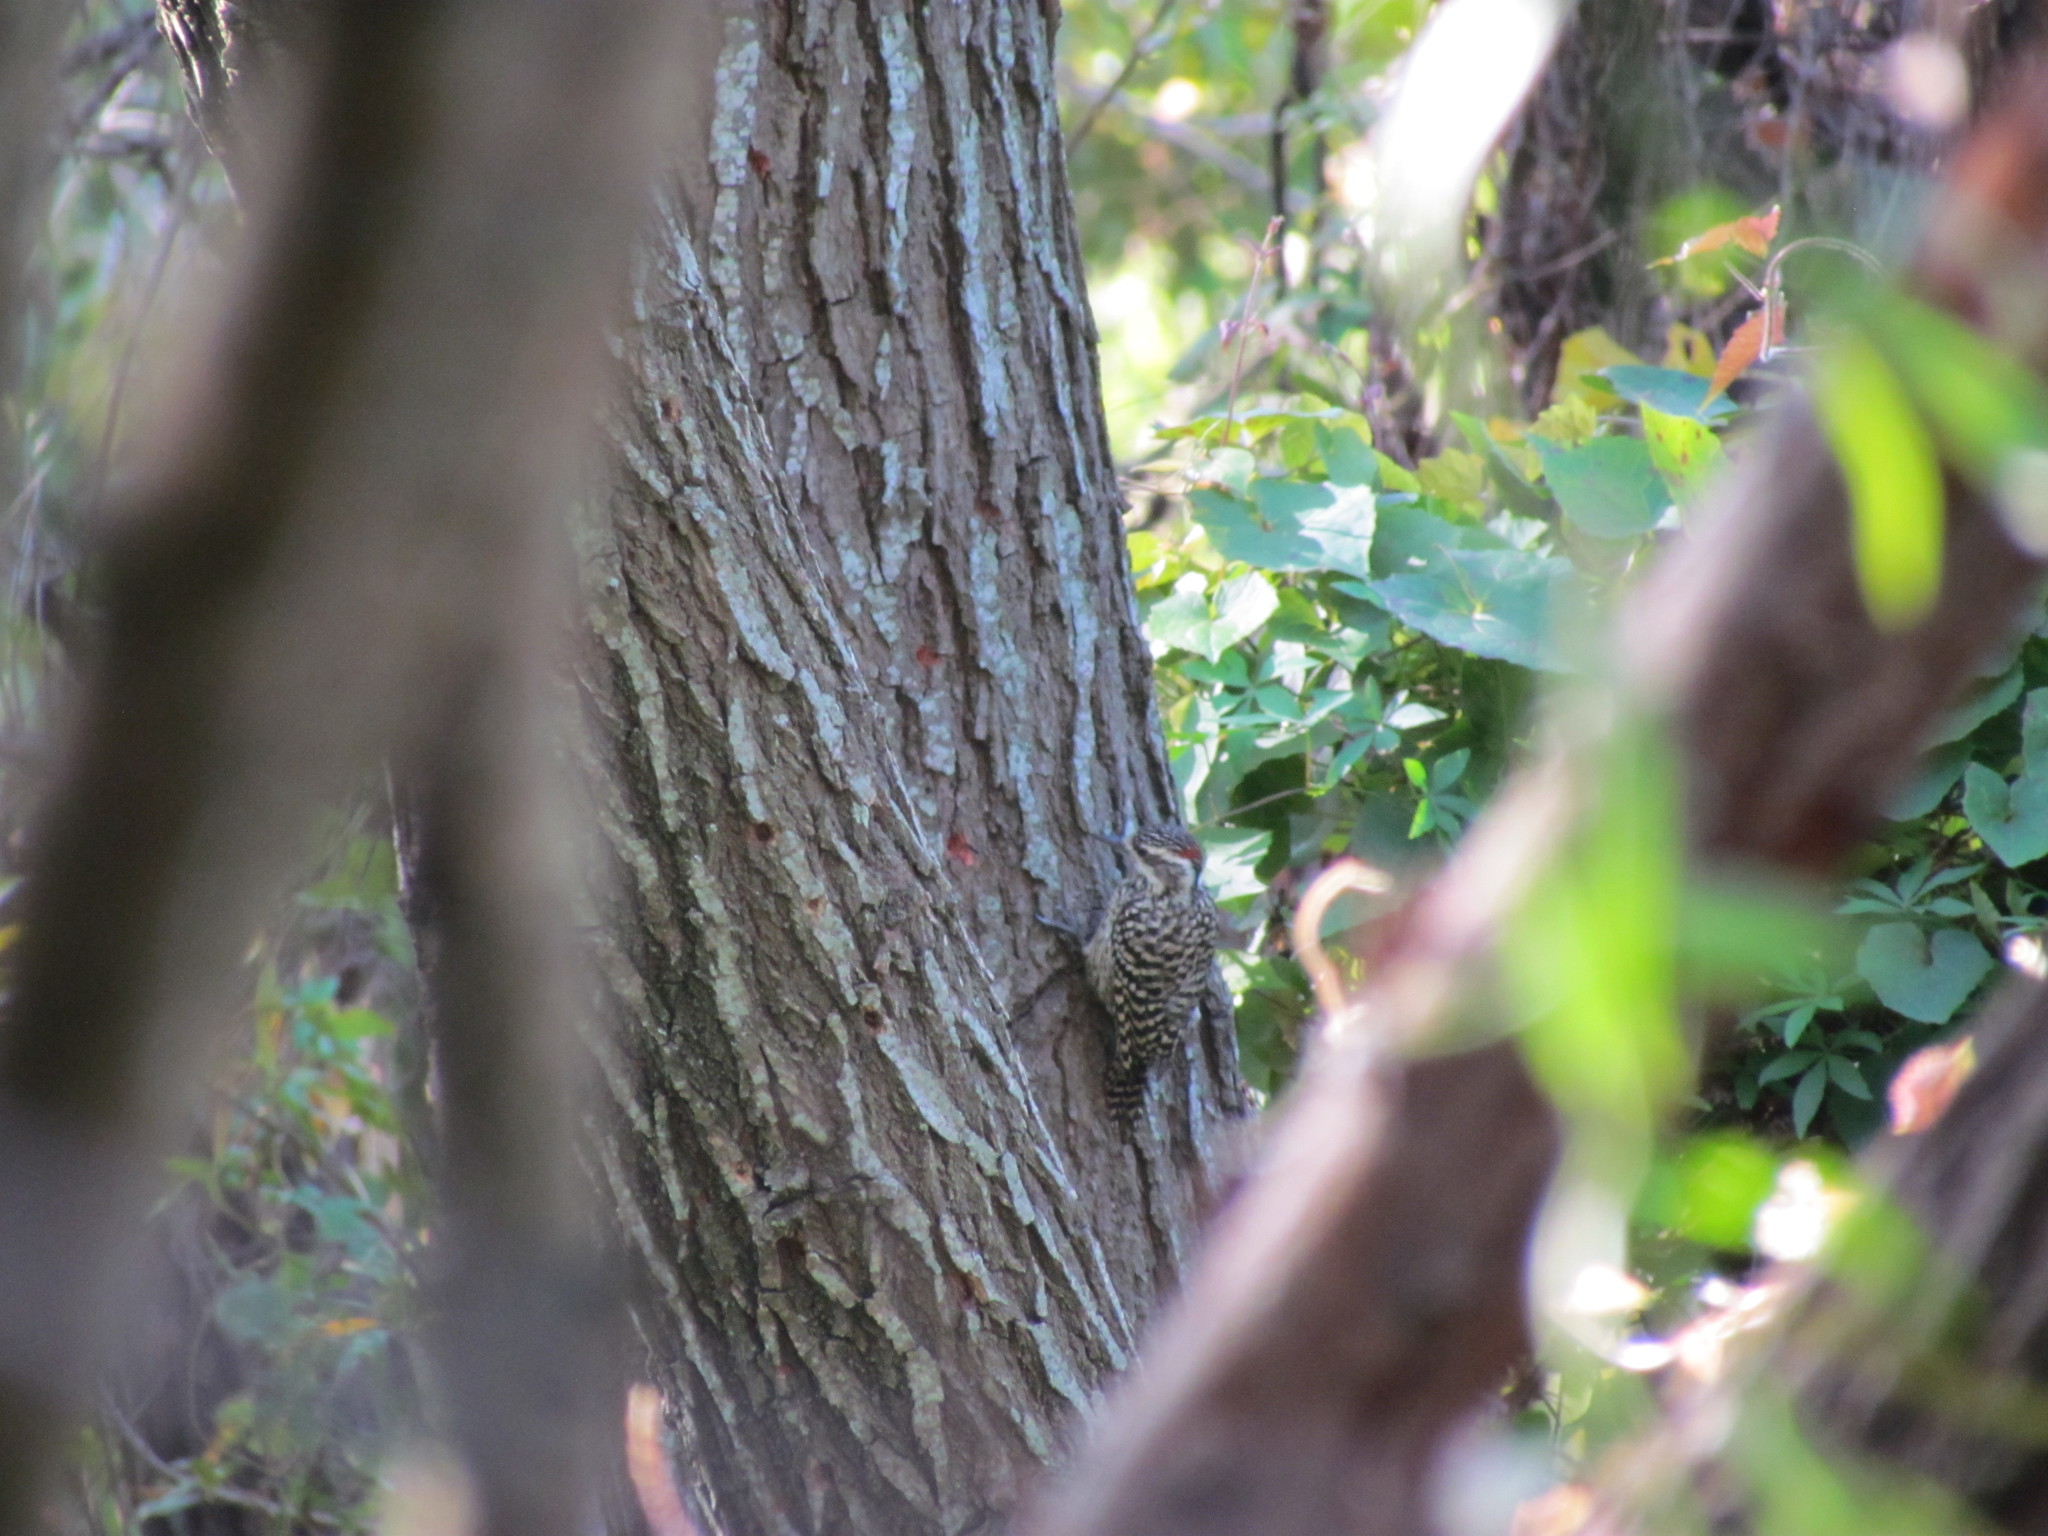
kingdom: Animalia
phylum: Chordata
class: Aves
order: Piciformes
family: Picidae
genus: Veniliornis
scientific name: Veniliornis mixtus
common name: Checkered woodpecker
